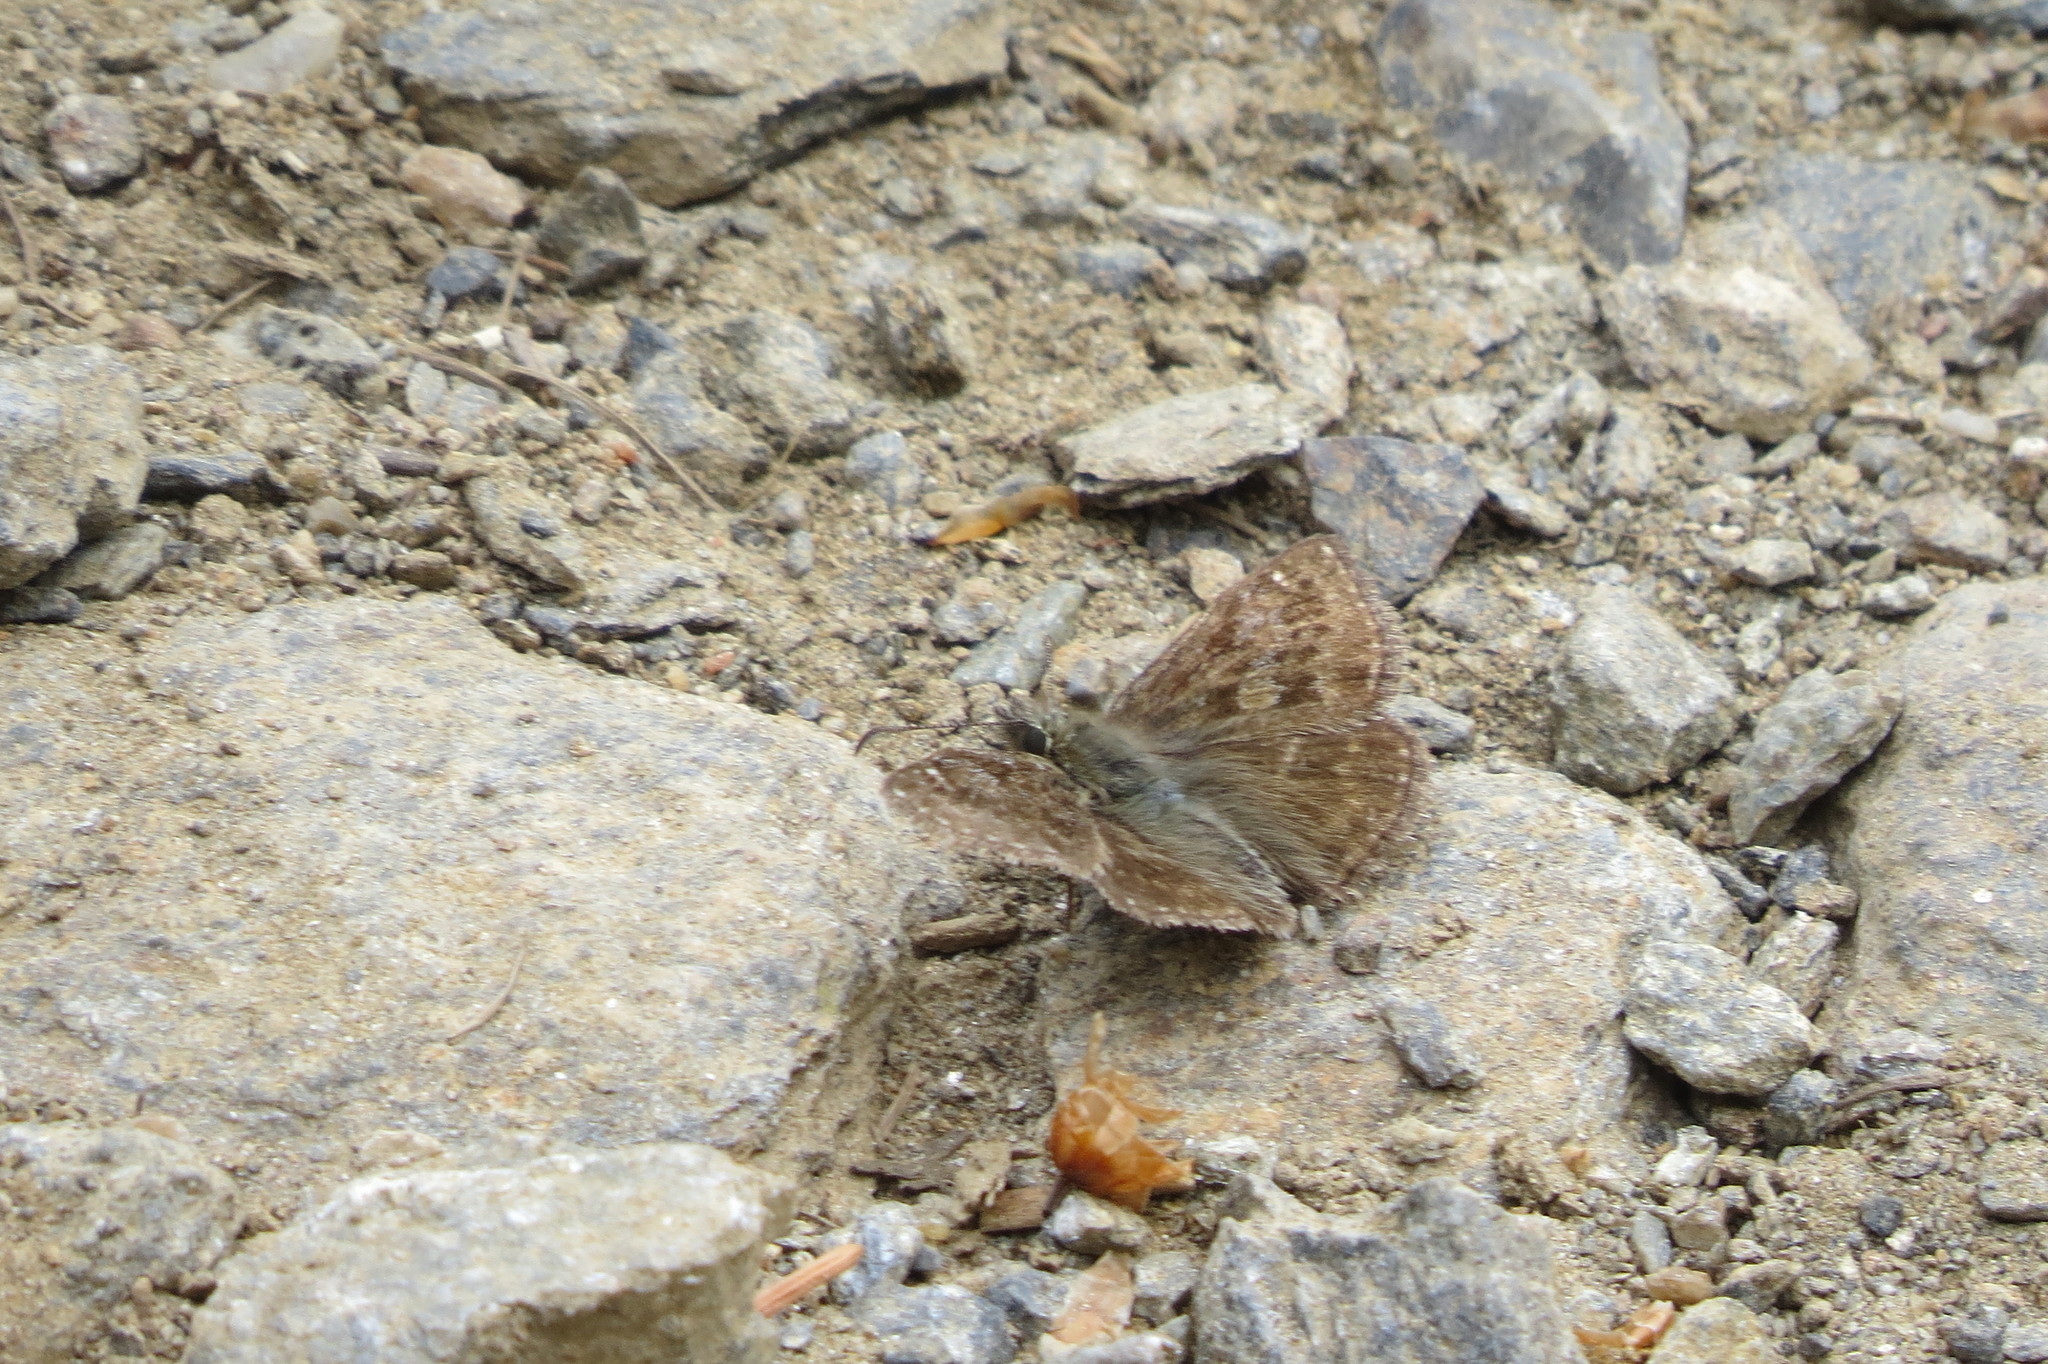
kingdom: Animalia
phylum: Arthropoda
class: Insecta
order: Lepidoptera
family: Hesperiidae
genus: Erynnis
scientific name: Erynnis tages
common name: Dingy skipper
